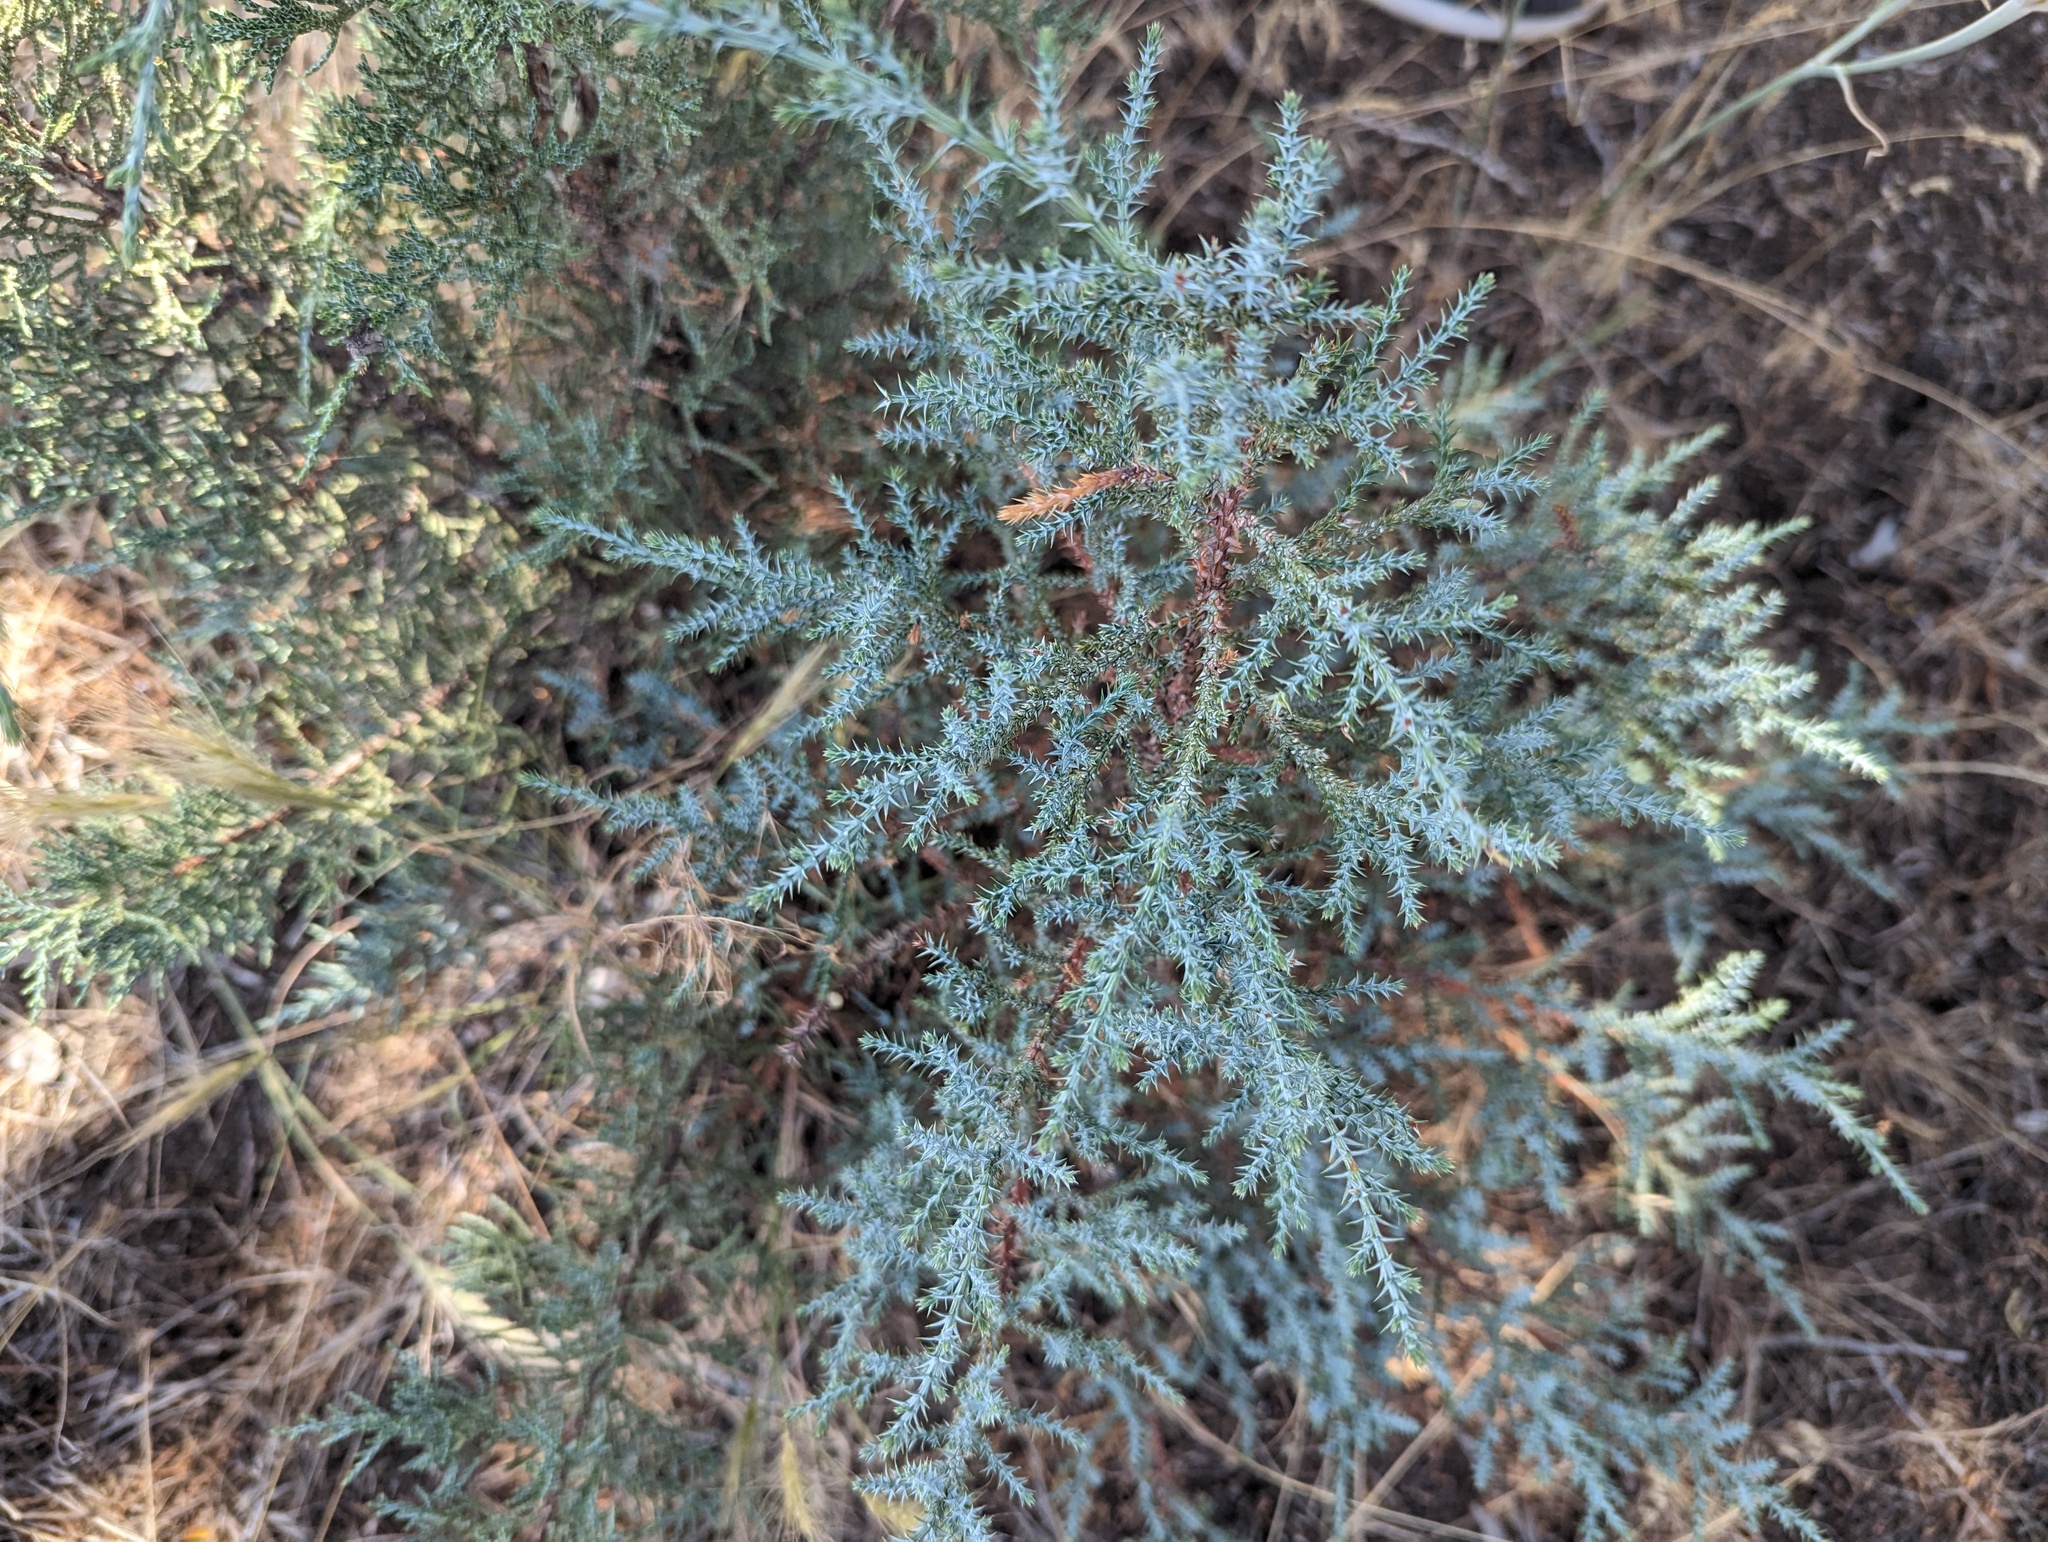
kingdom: Plantae
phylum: Tracheophyta
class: Pinopsida
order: Pinales
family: Cupressaceae
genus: Juniperus
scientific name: Juniperus occidentalis
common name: Western juniper
